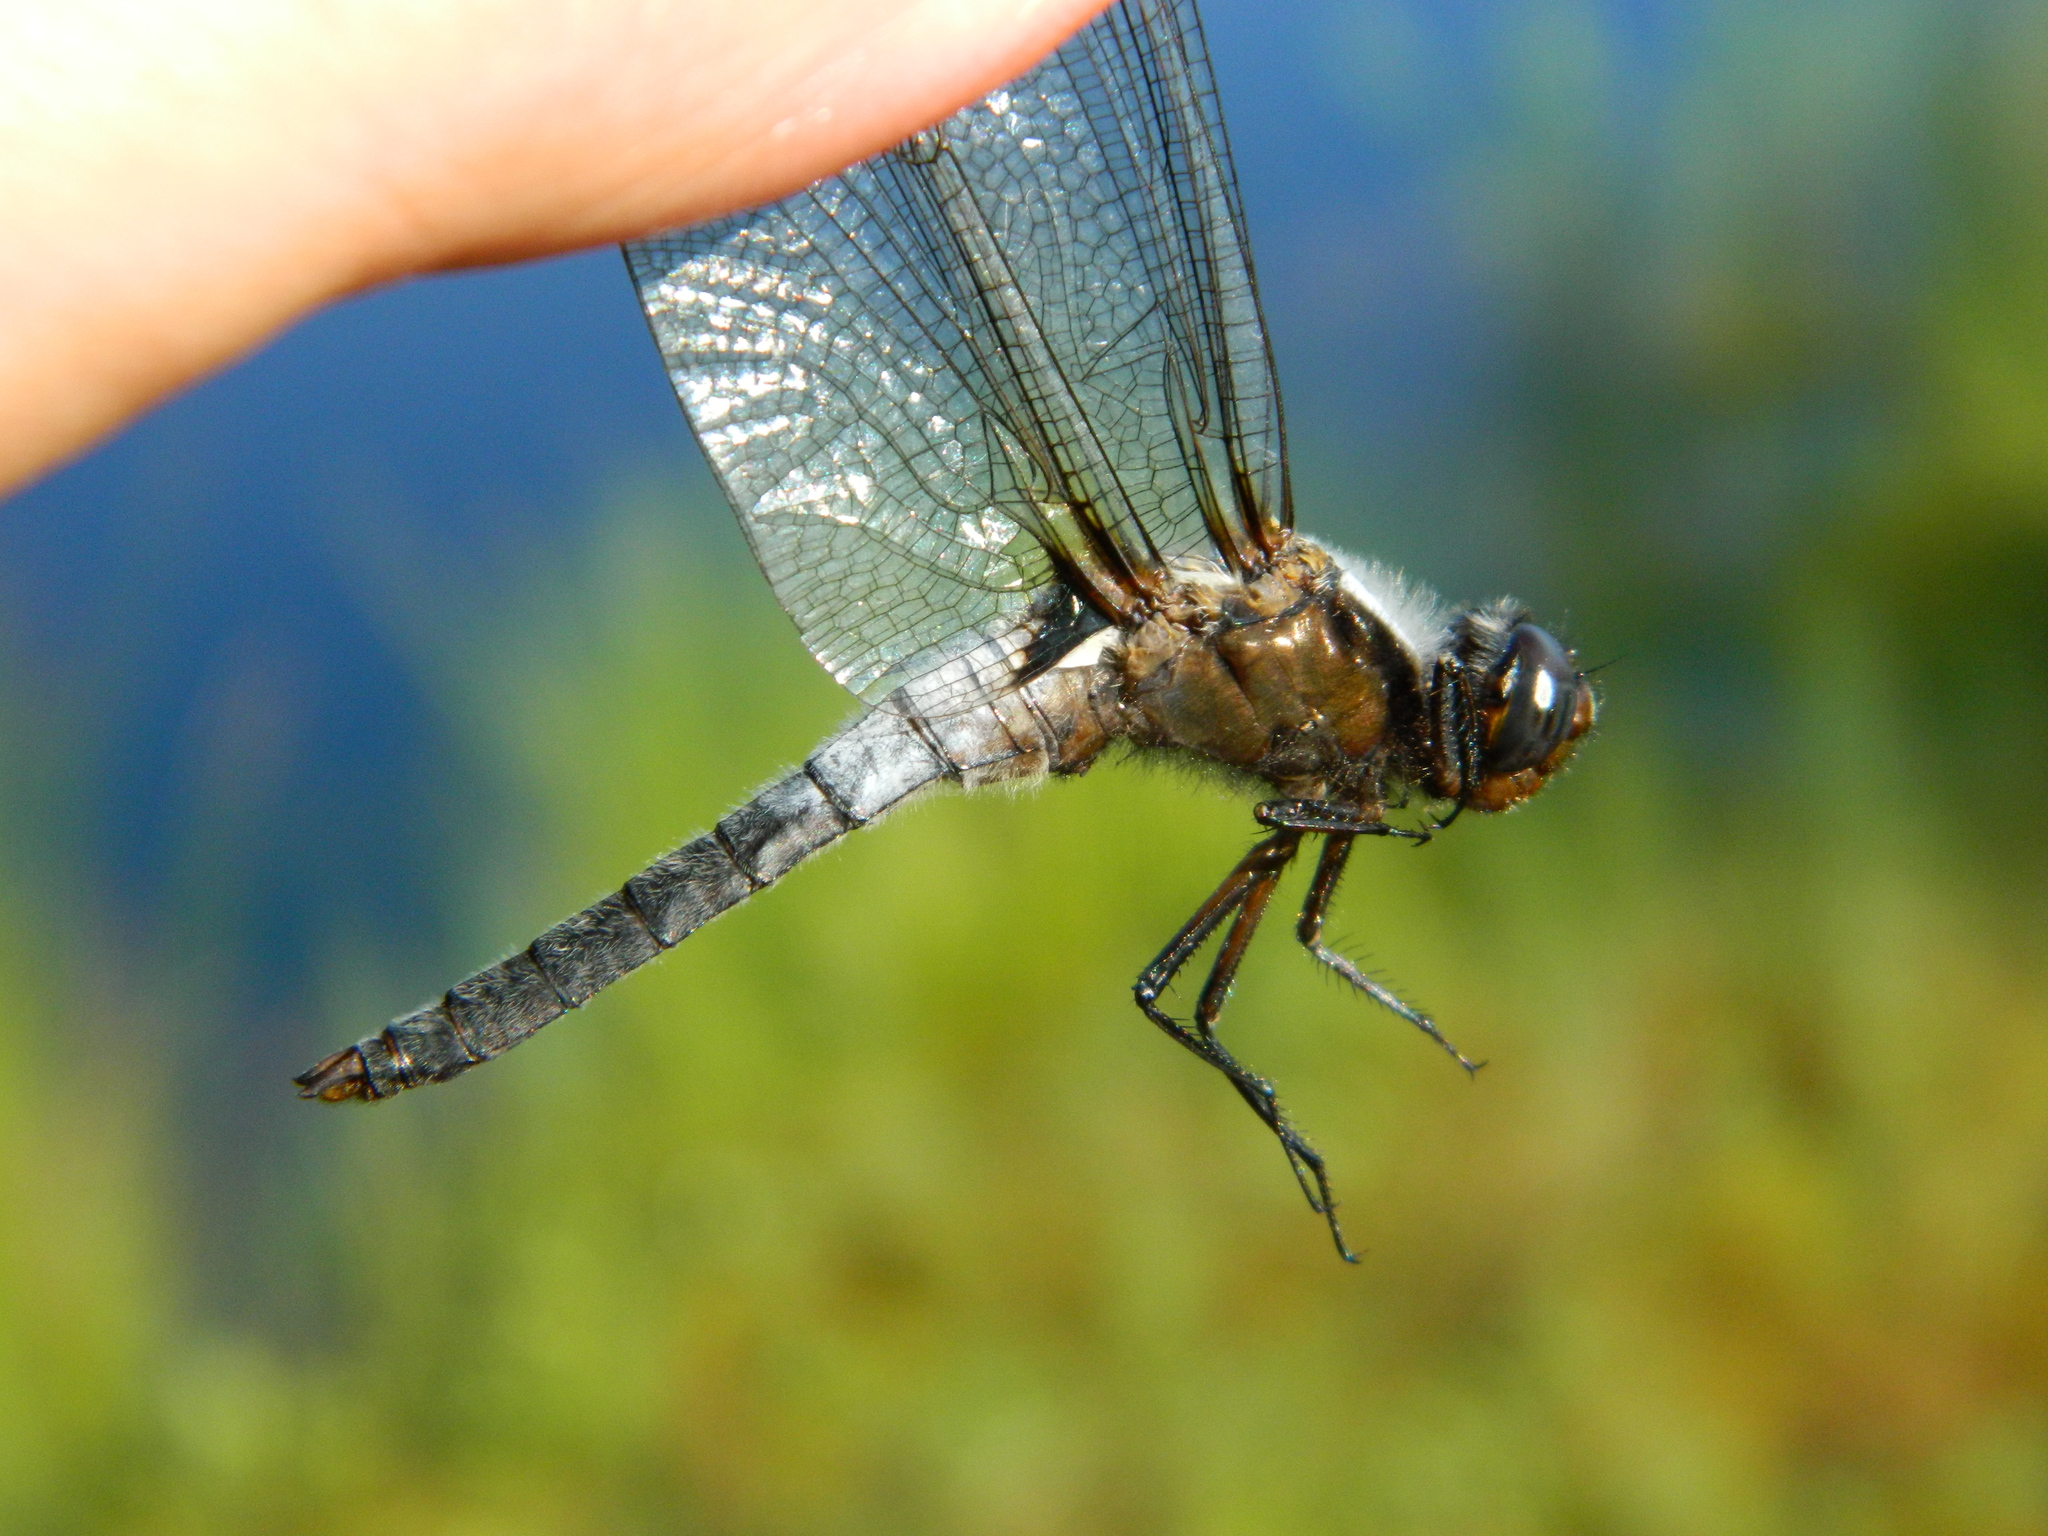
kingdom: Animalia
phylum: Arthropoda
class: Insecta
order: Odonata
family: Libellulidae
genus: Ladona
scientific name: Ladona julia
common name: Chalk-fronted corporal
